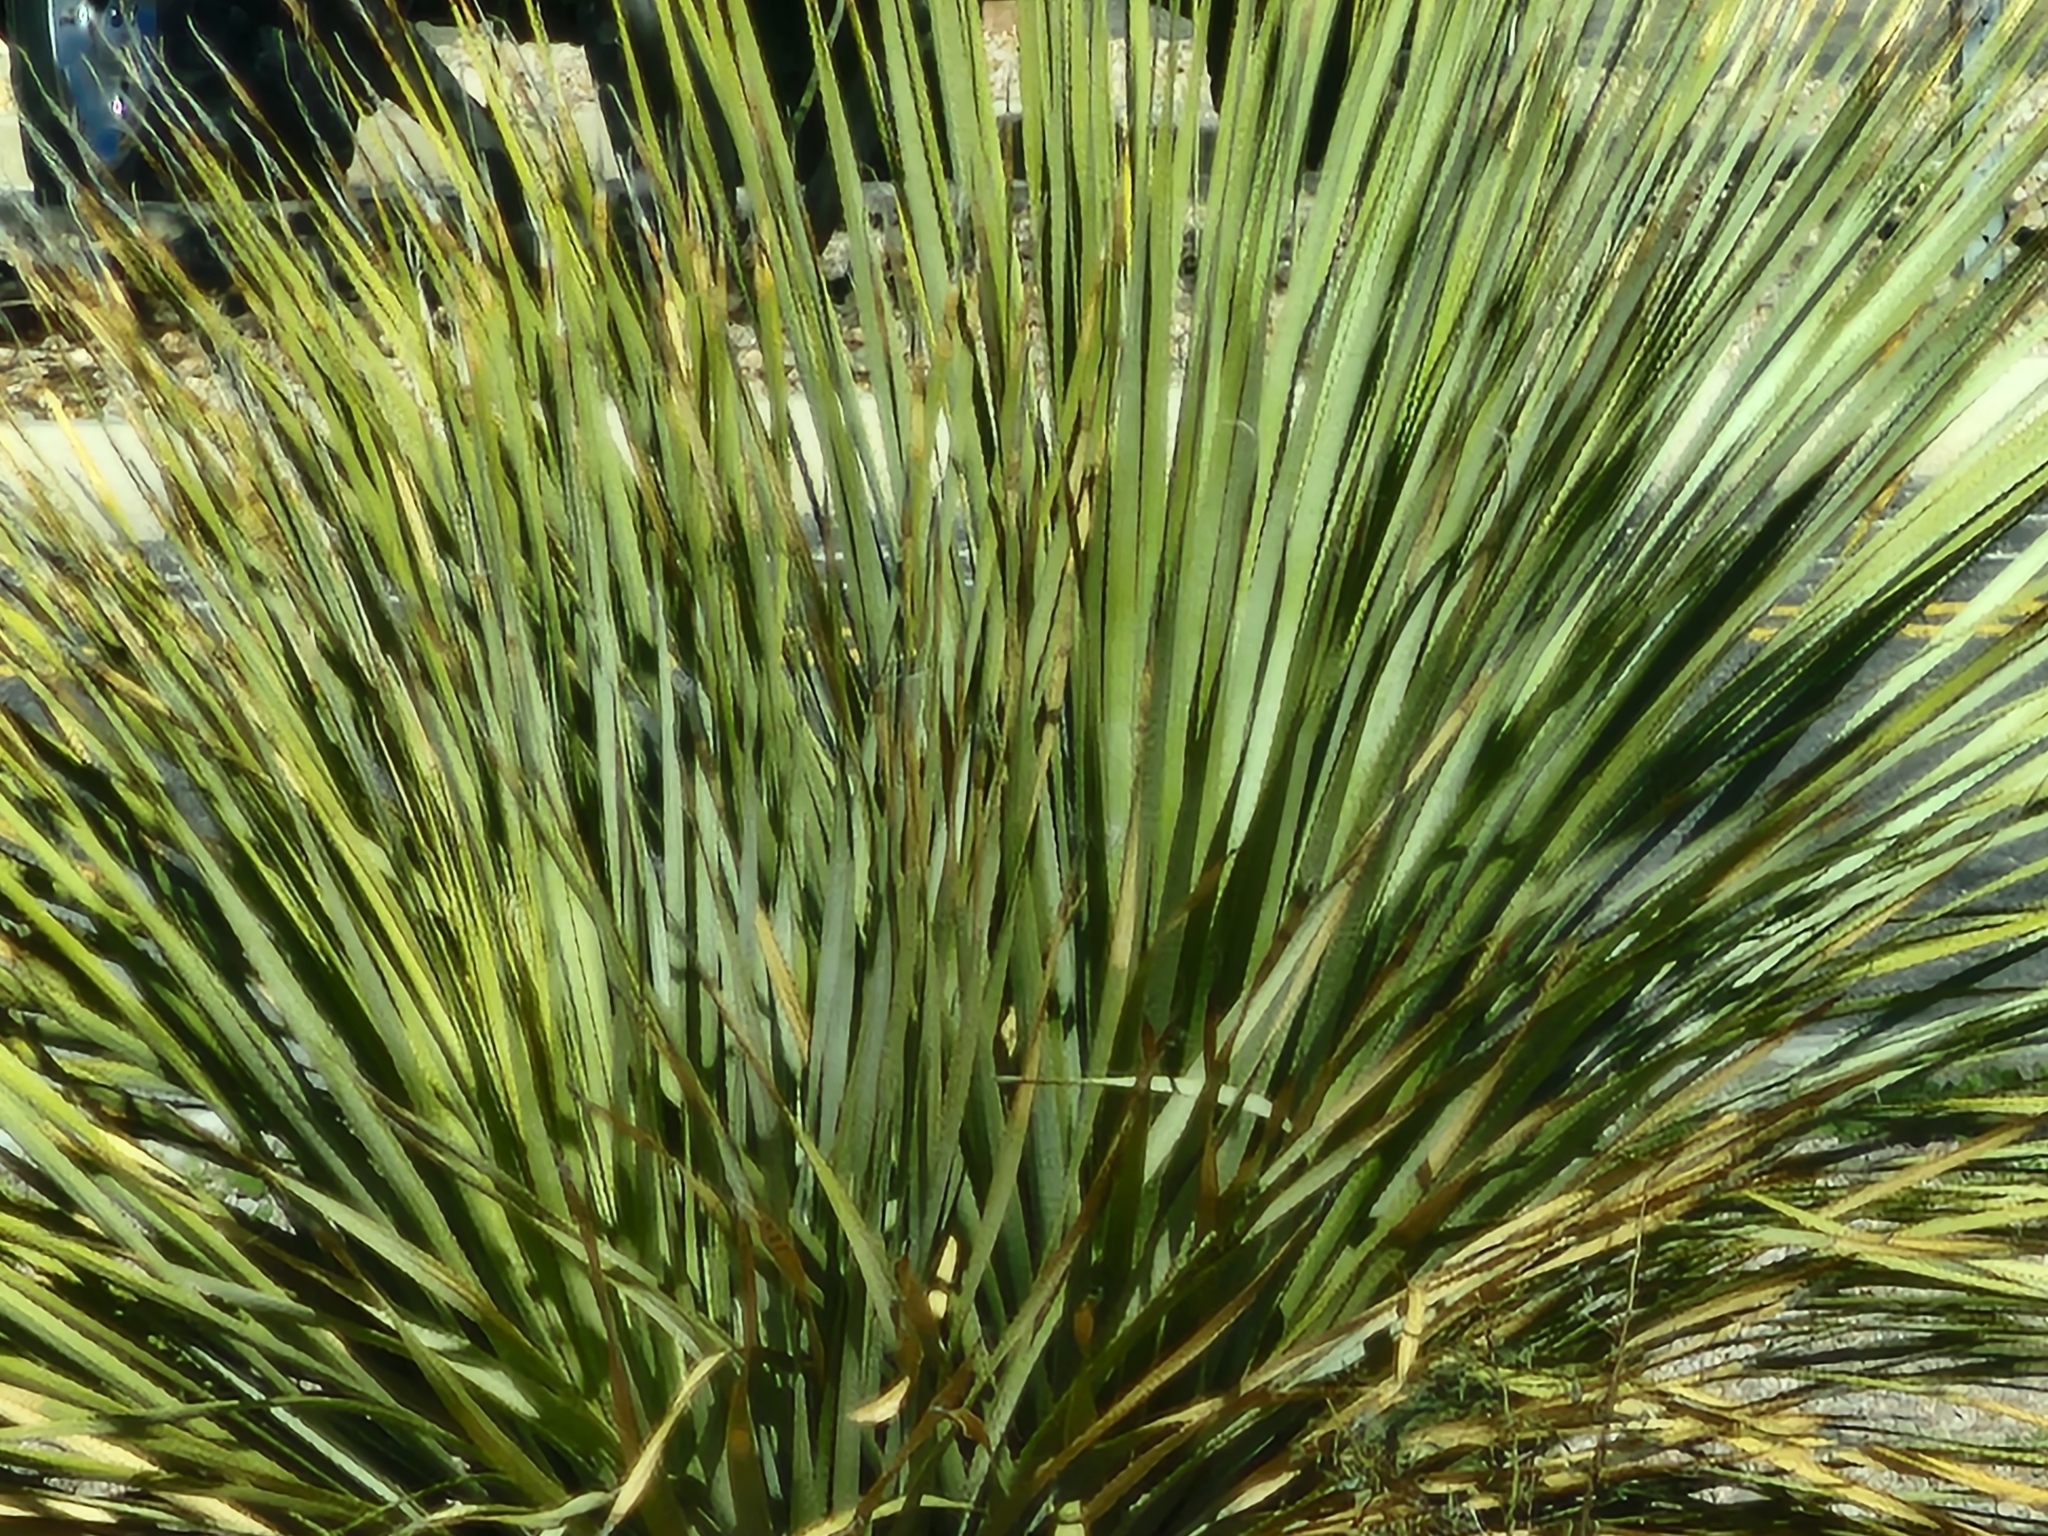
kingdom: Plantae
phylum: Tracheophyta
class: Liliopsida
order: Asparagales
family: Asparagaceae
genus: Dasylirion
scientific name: Dasylirion wheeleri
